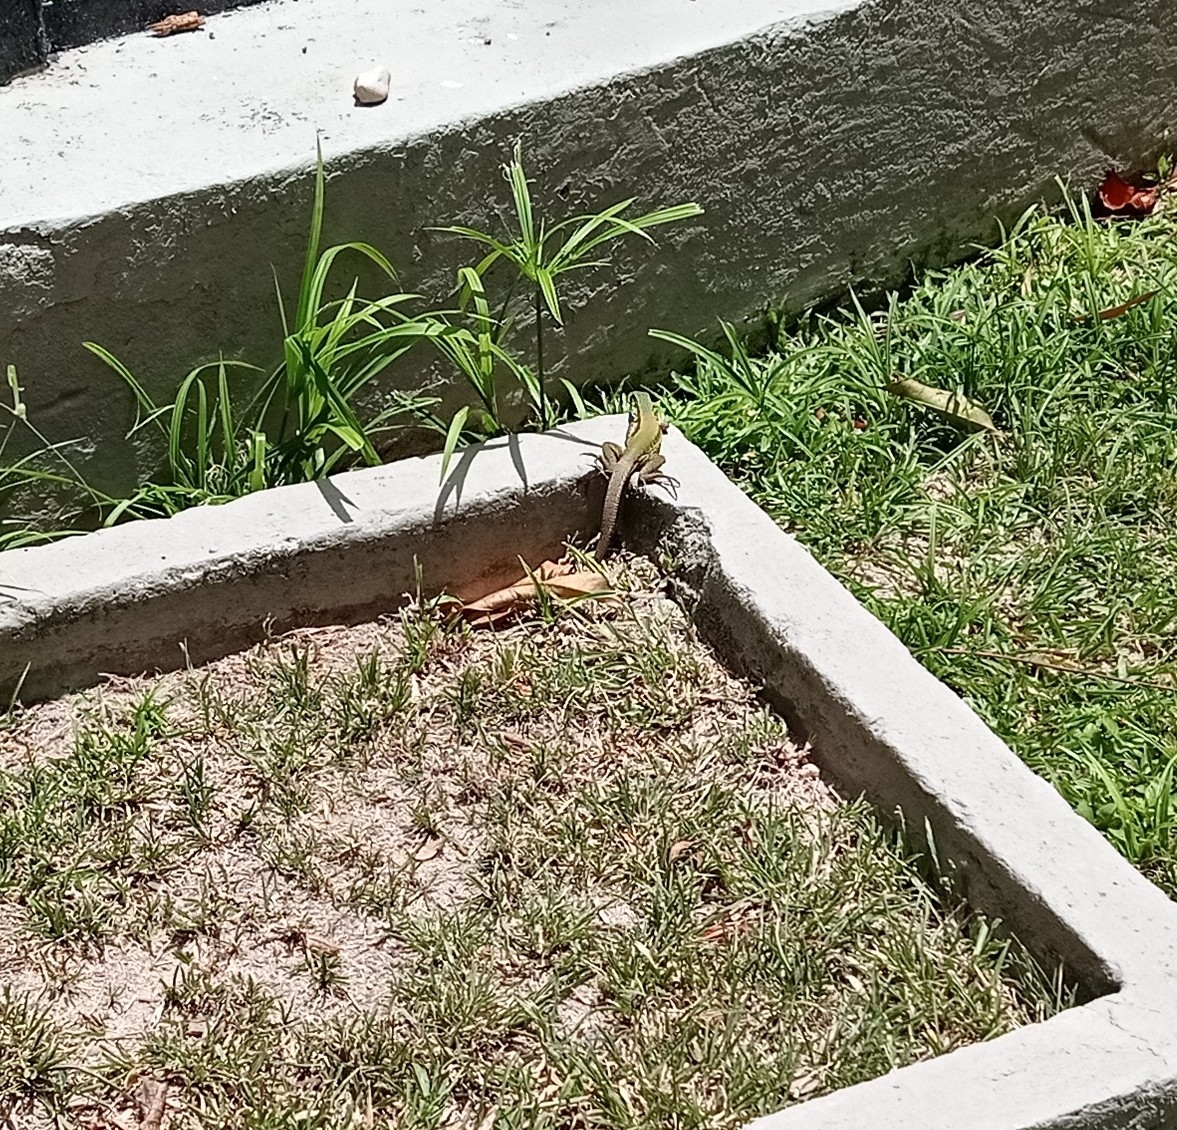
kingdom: Animalia
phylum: Chordata
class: Squamata
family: Teiidae
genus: Ameiva
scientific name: Ameiva ameiva
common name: Giant ameiva
